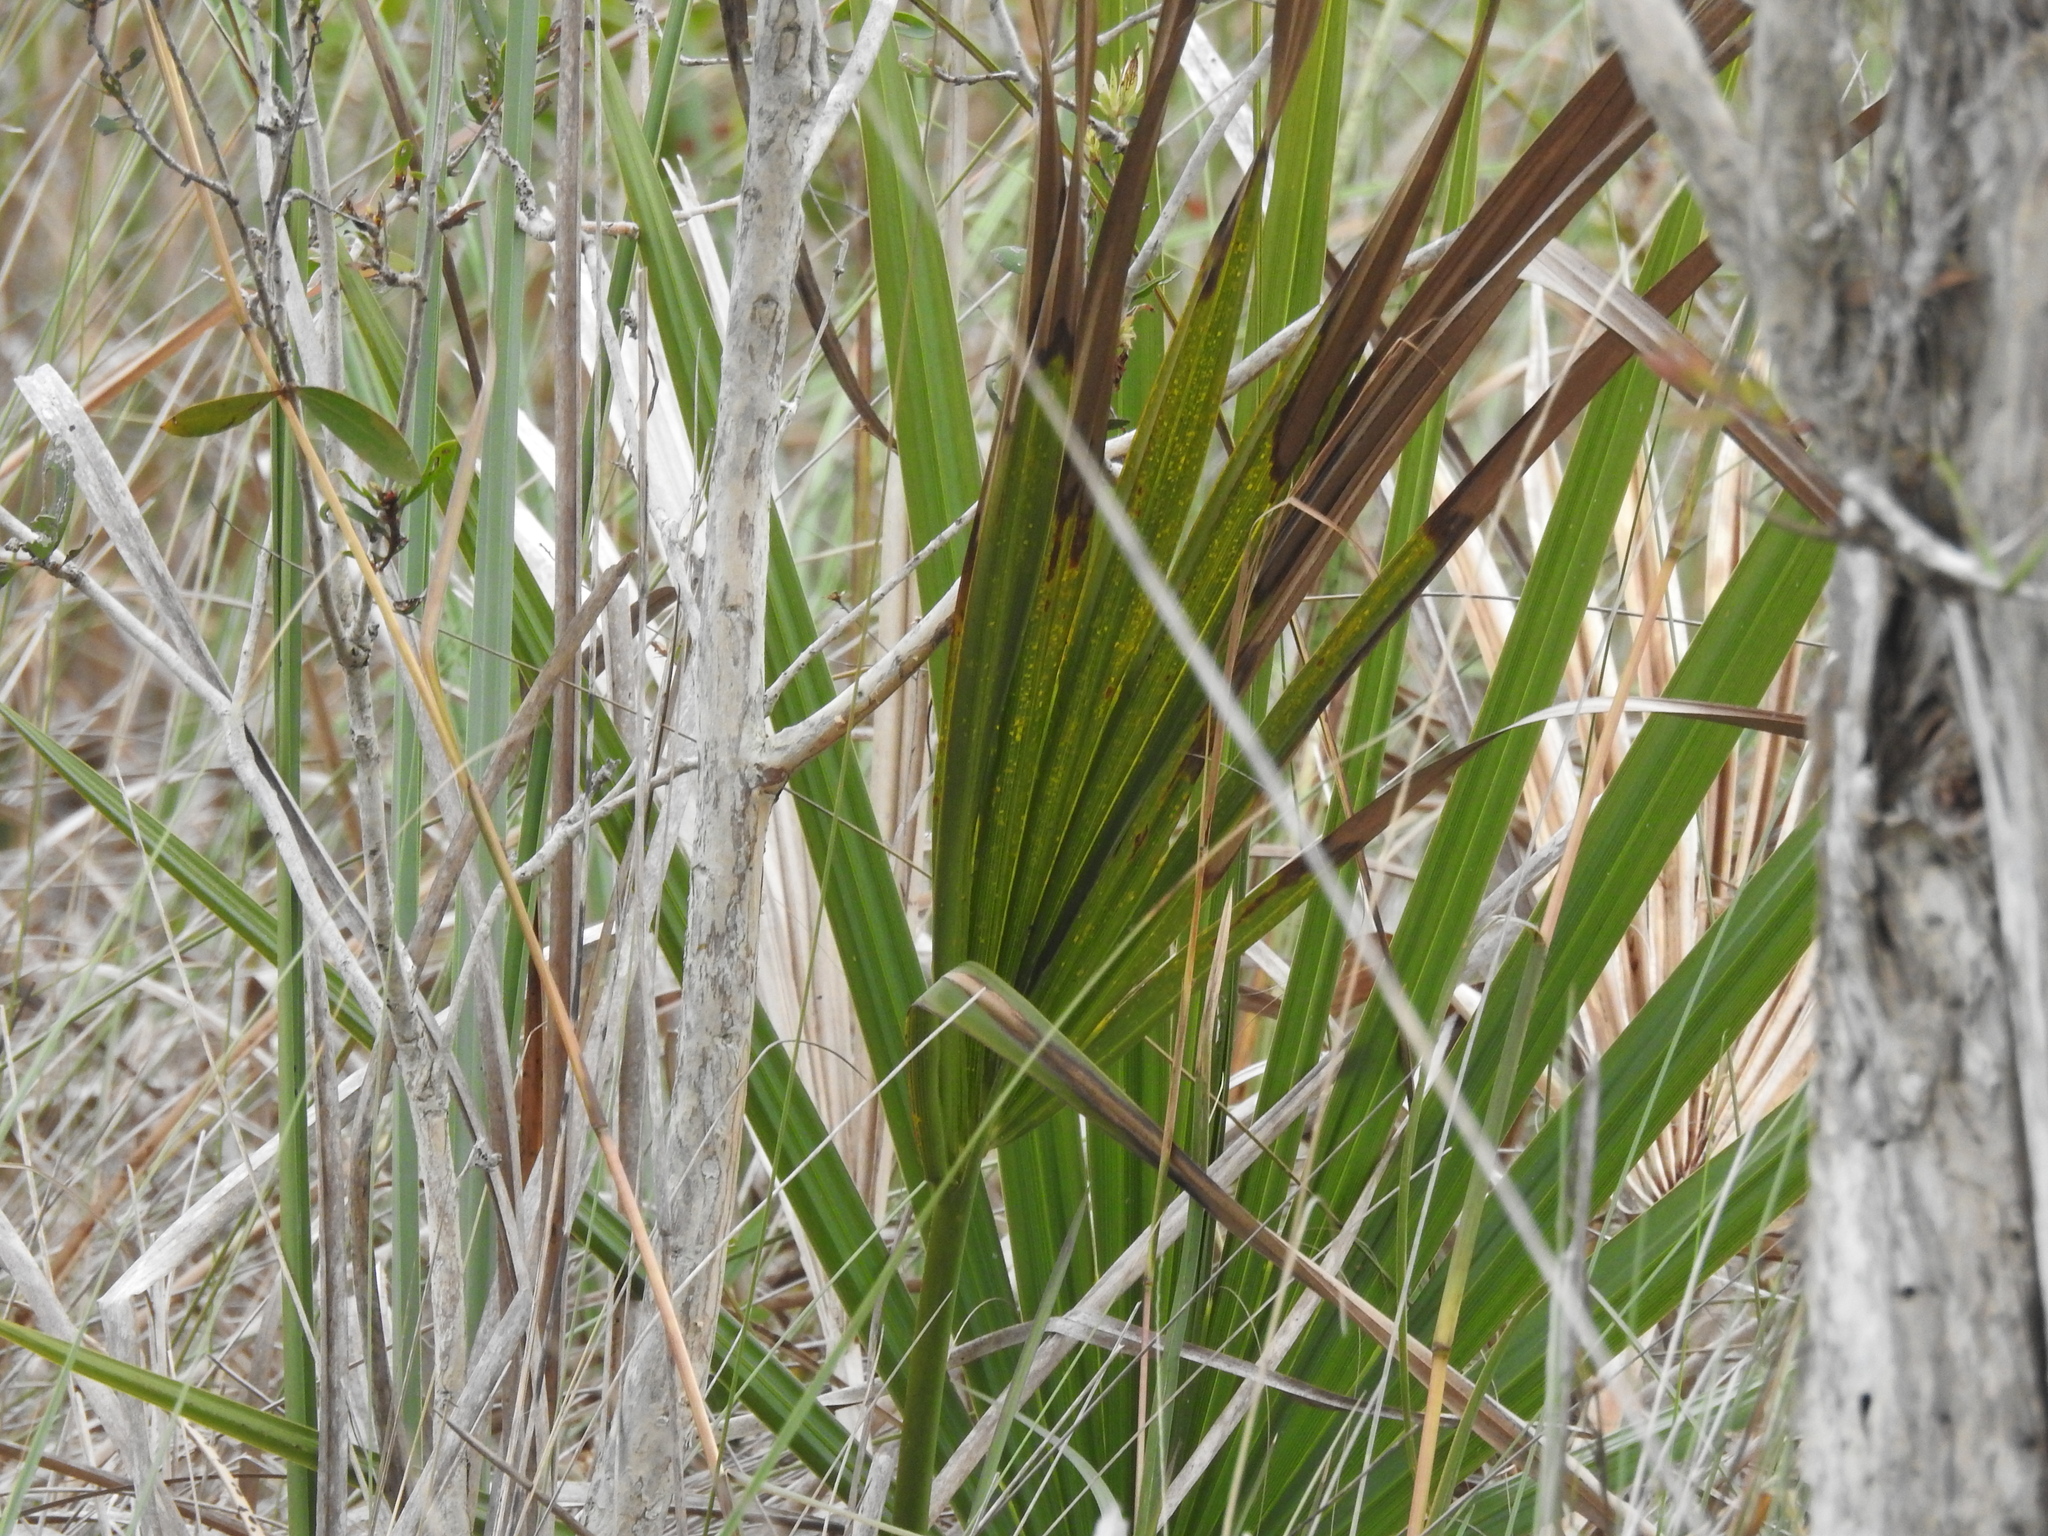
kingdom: Plantae
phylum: Tracheophyta
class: Liliopsida
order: Arecales
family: Arecaceae
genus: Sabal
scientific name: Sabal palmetto
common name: Blue palmetto
